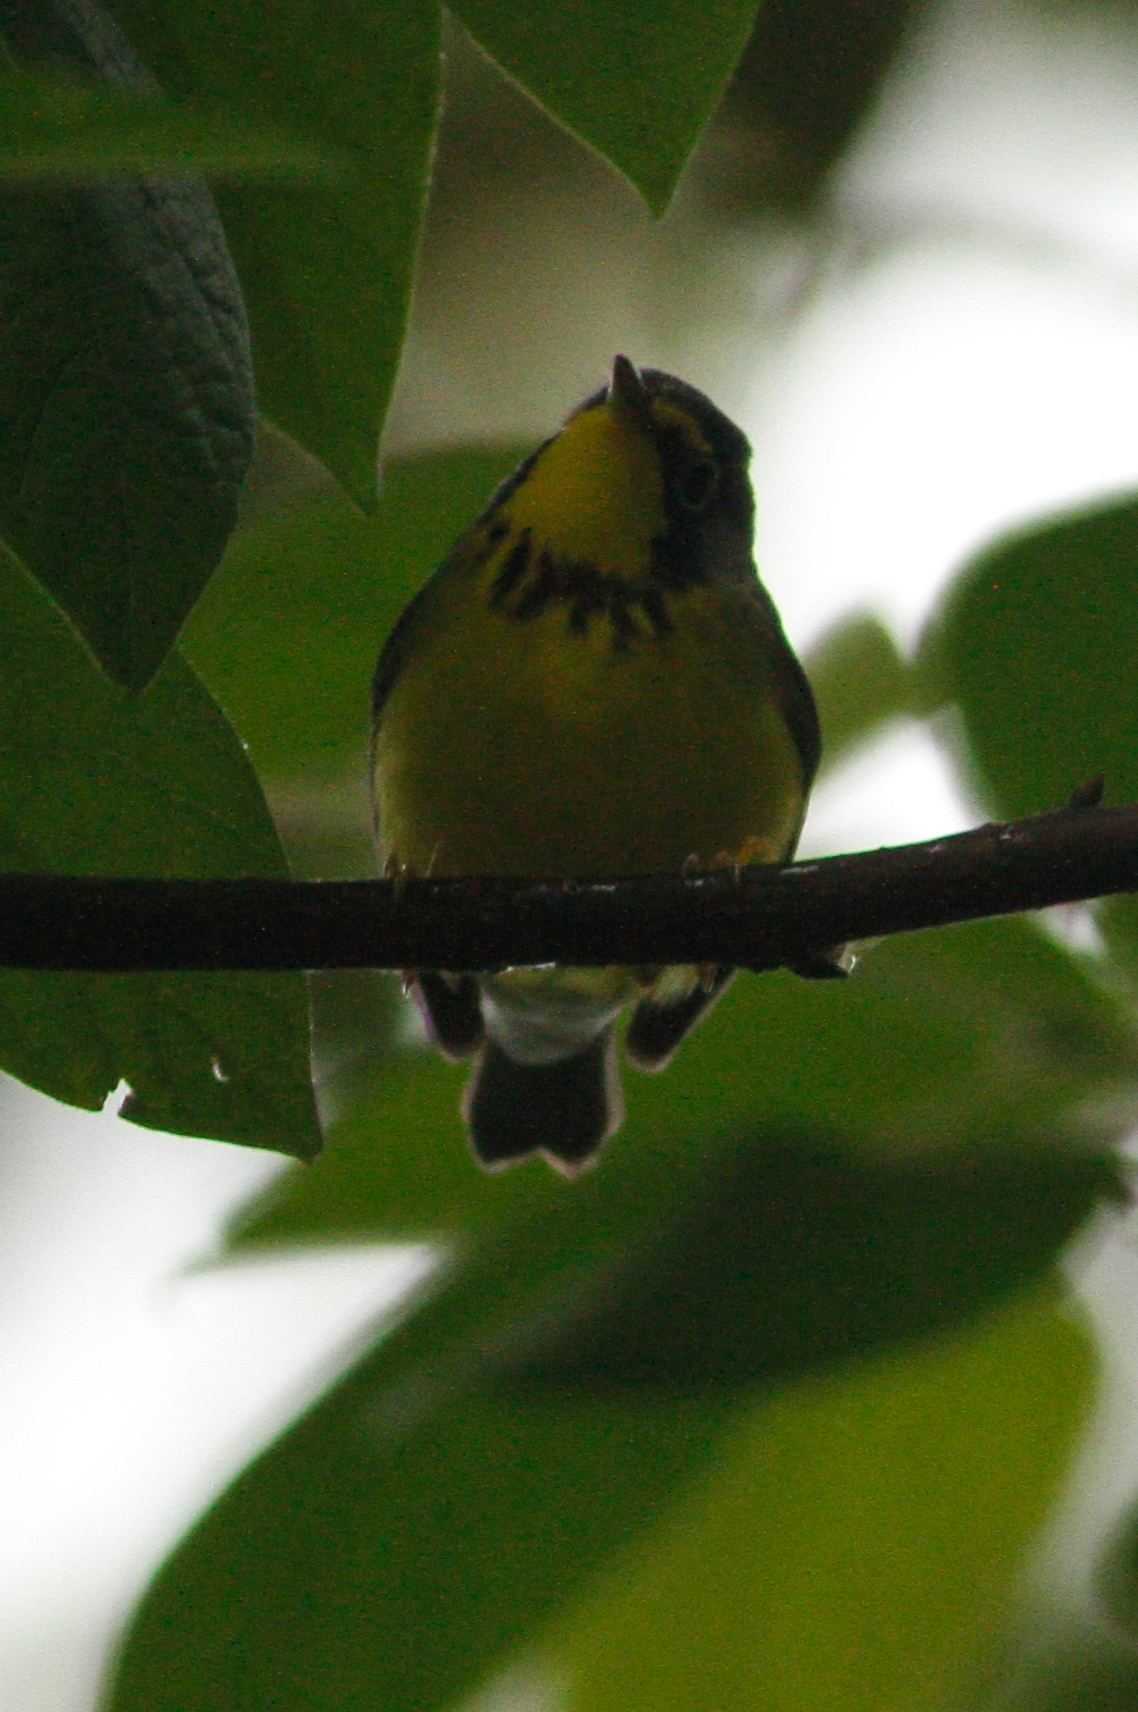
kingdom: Animalia
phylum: Chordata
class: Aves
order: Passeriformes
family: Parulidae
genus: Cardellina
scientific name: Cardellina canadensis
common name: Canada warbler
